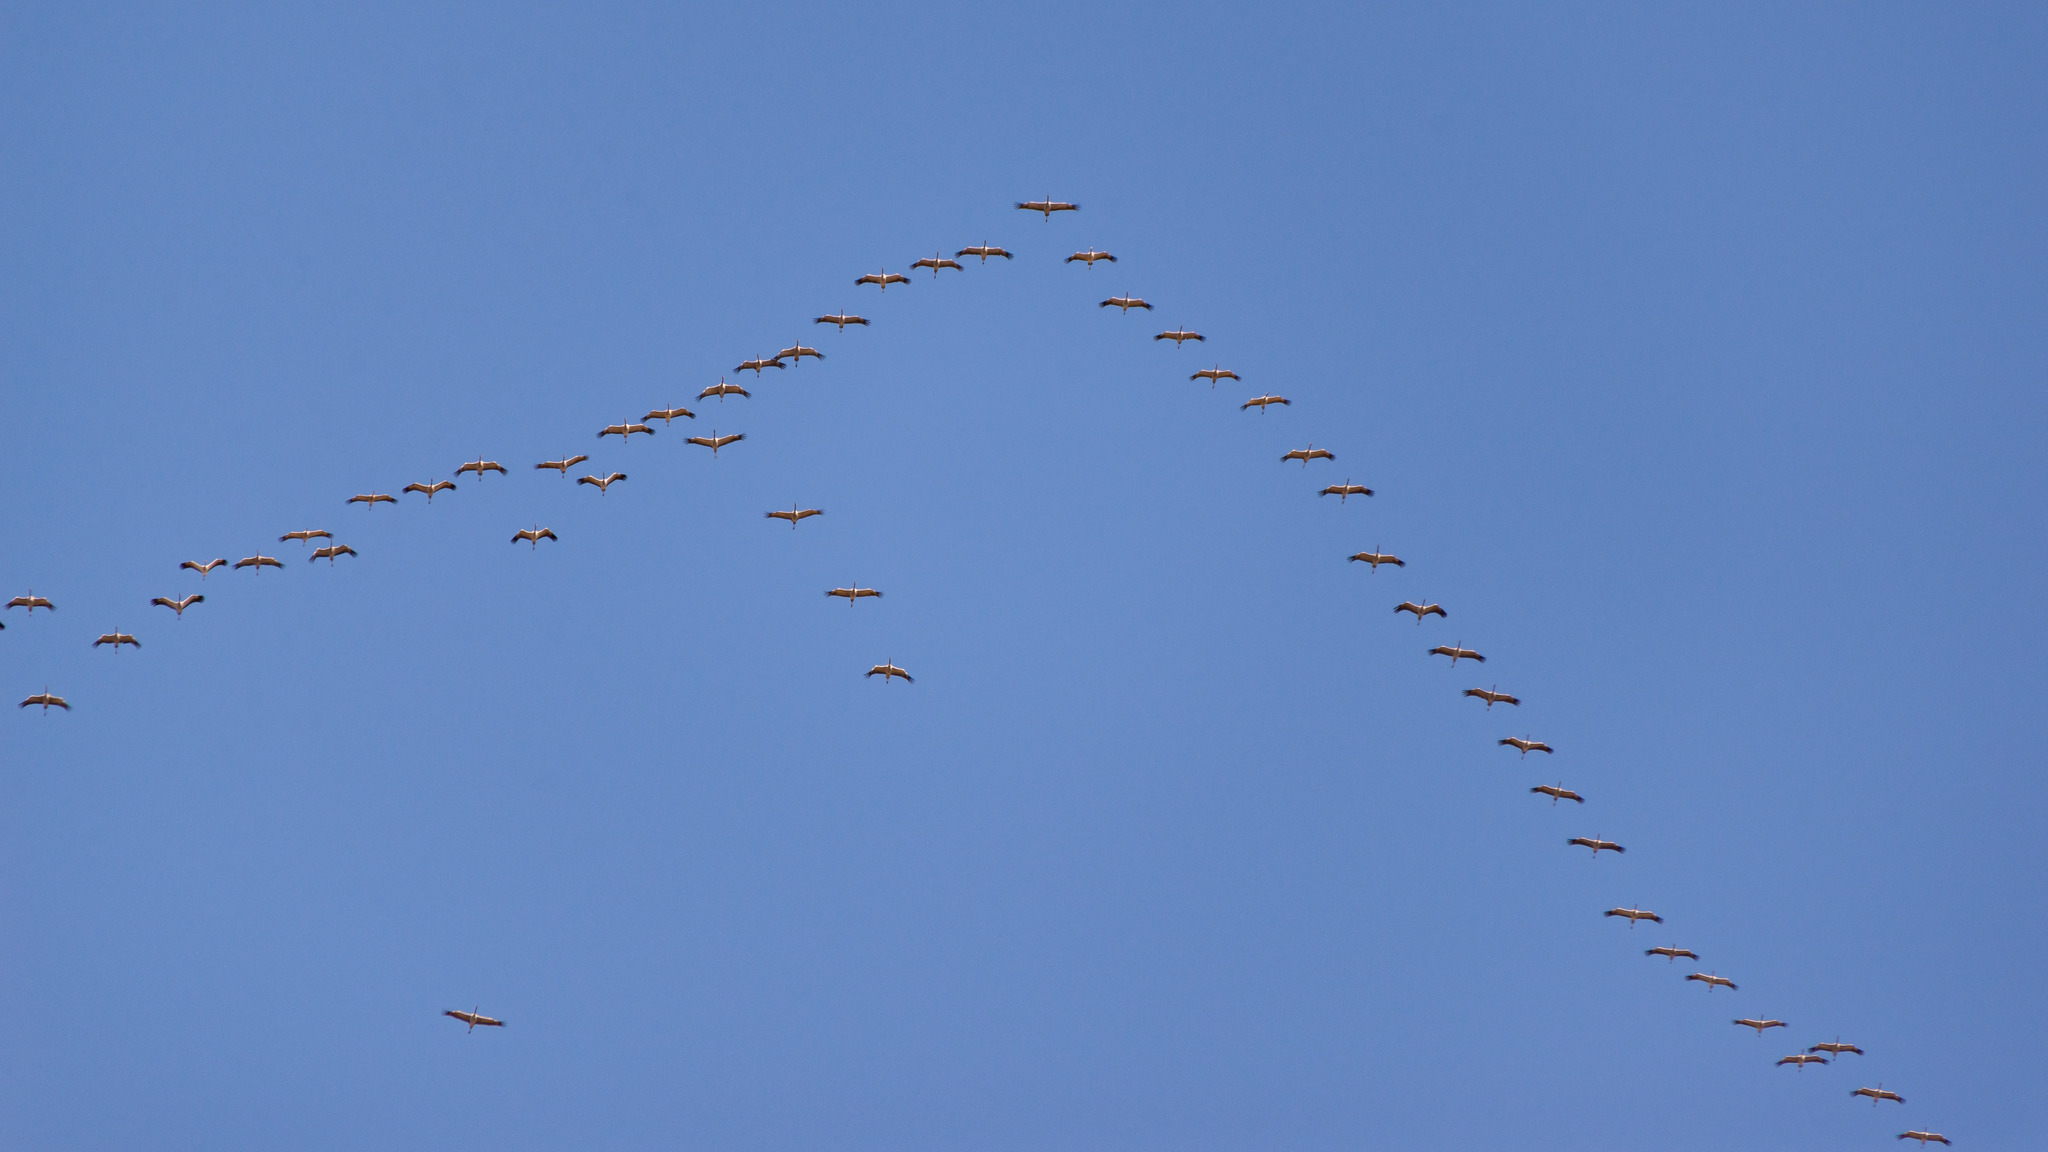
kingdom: Animalia
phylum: Chordata
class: Aves
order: Gruiformes
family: Gruidae
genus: Grus
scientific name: Grus grus
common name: Common crane
